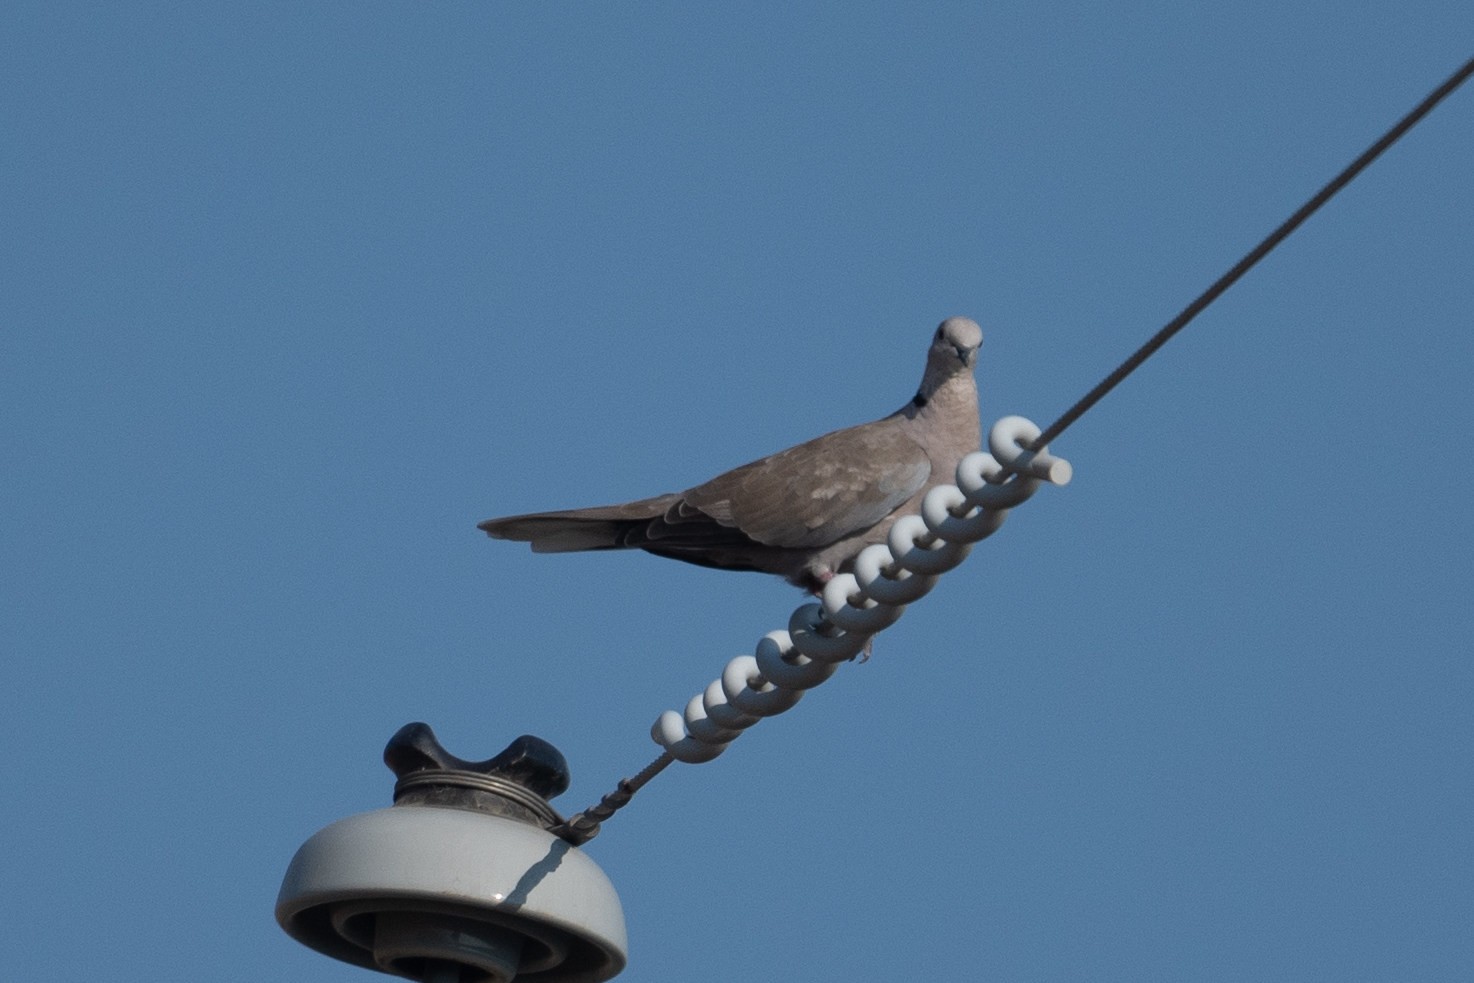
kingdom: Animalia
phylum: Chordata
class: Aves
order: Columbiformes
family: Columbidae
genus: Streptopelia
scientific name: Streptopelia decaocto
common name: Eurasian collared dove
